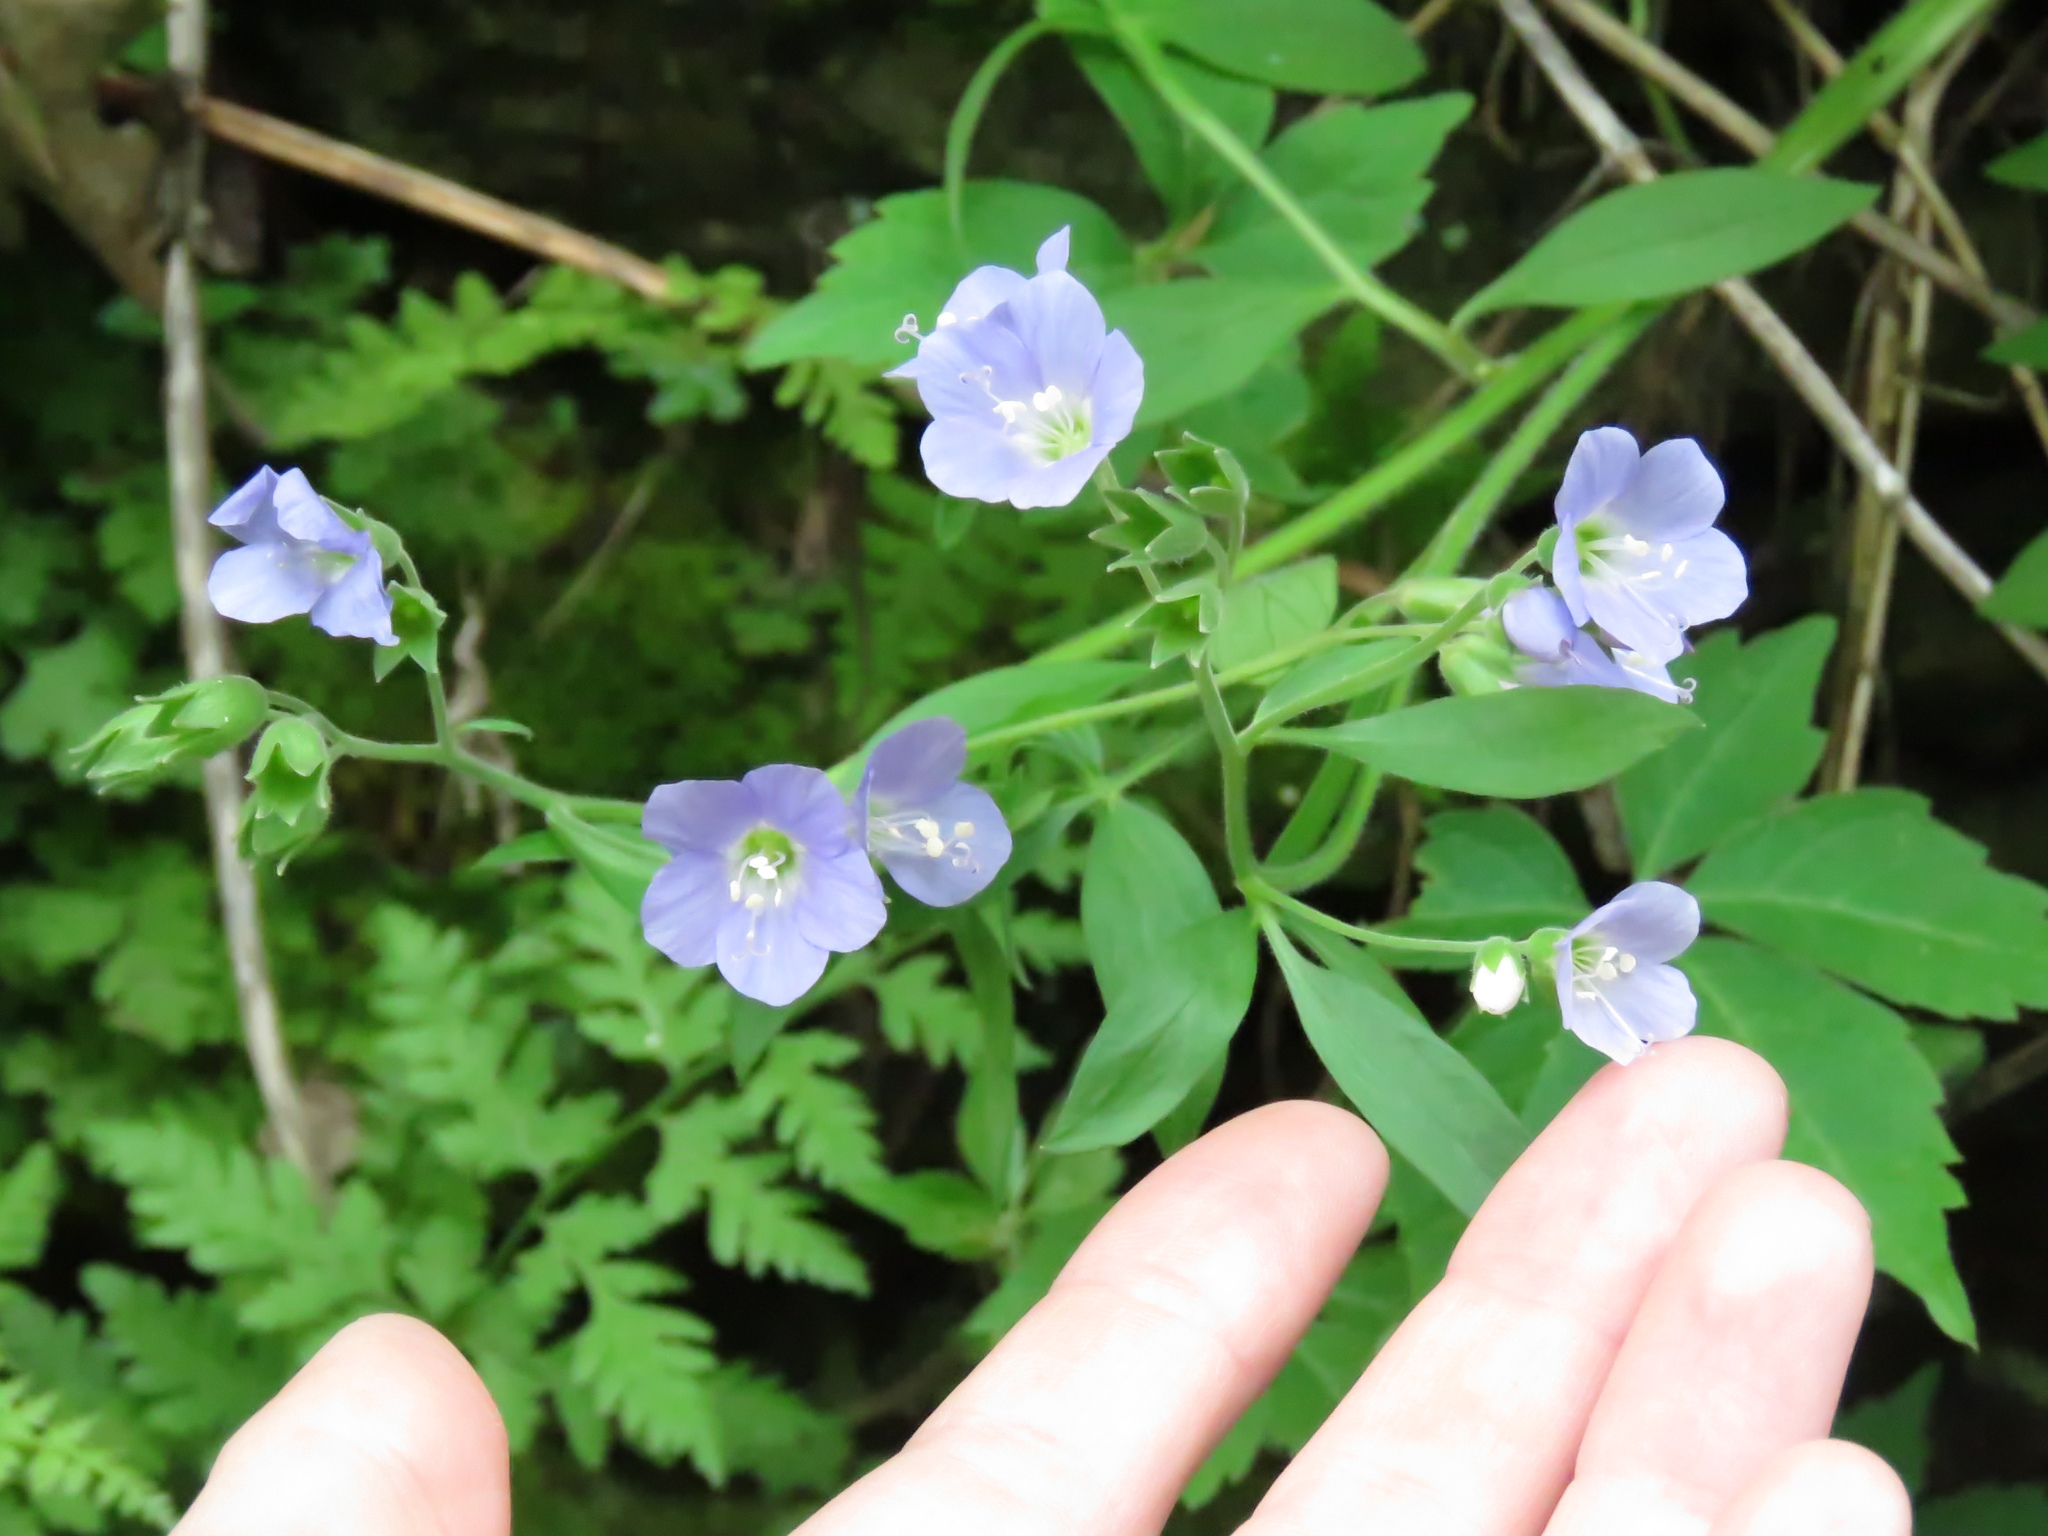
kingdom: Plantae
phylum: Tracheophyta
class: Magnoliopsida
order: Ericales
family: Polemoniaceae
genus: Polemonium
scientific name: Polemonium reptans
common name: Creeping jacob's-ladder
